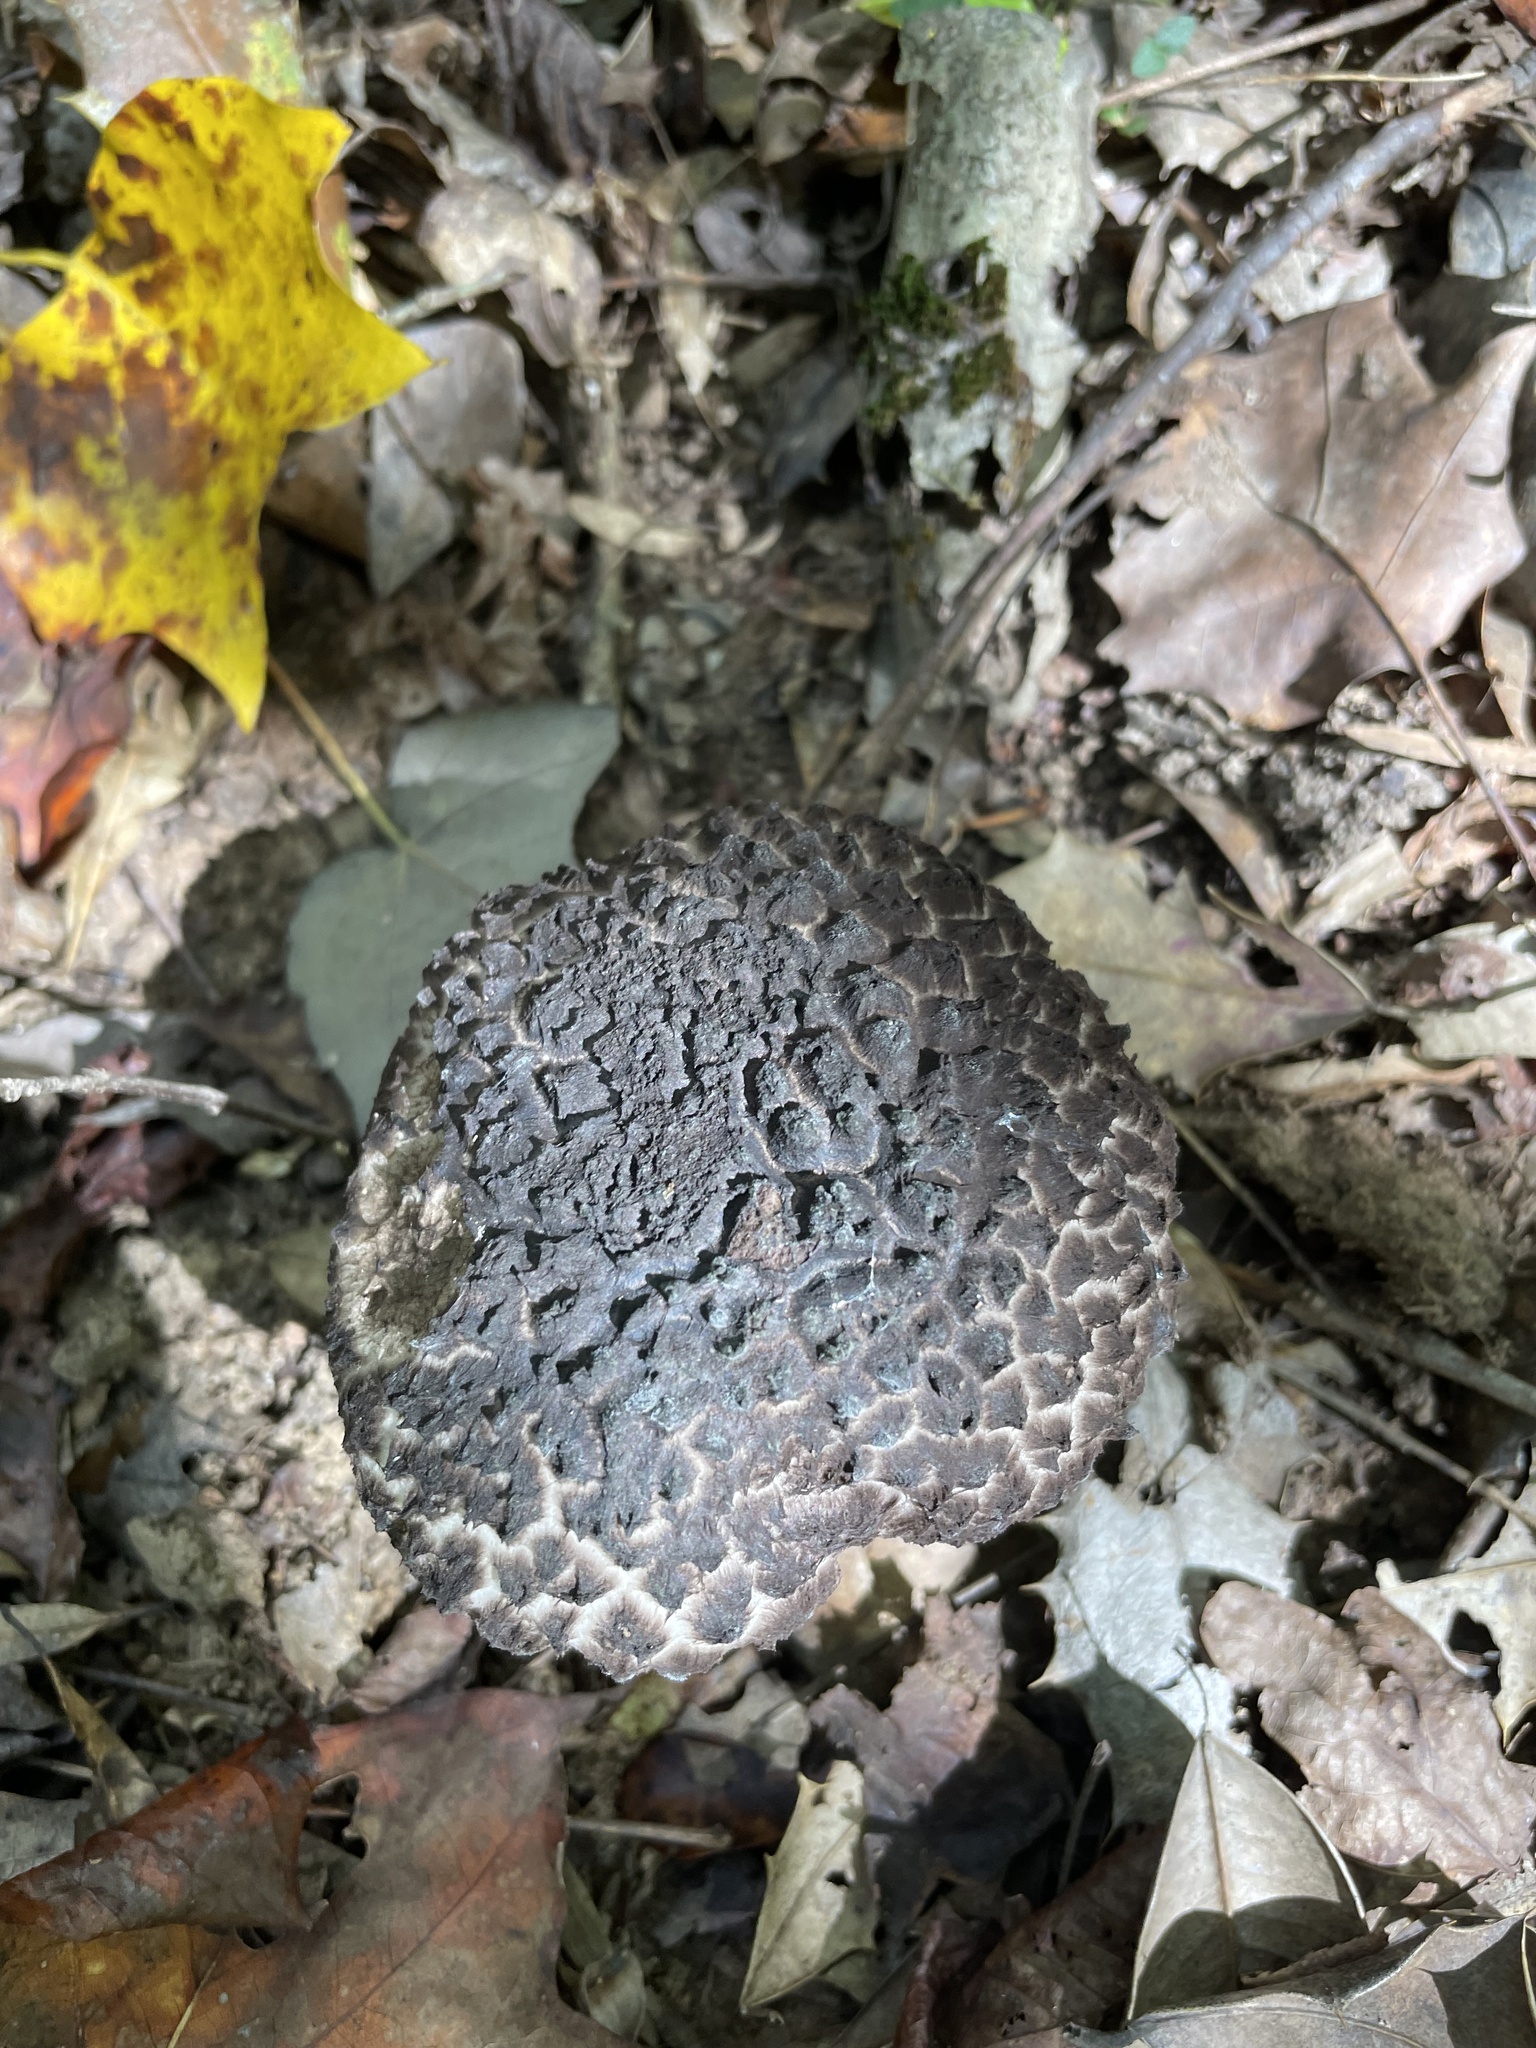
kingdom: Fungi
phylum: Basidiomycota
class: Agaricomycetes
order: Boletales
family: Boletaceae
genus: Strobilomyces
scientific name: Strobilomyces strobilaceus
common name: Old man of the woods
